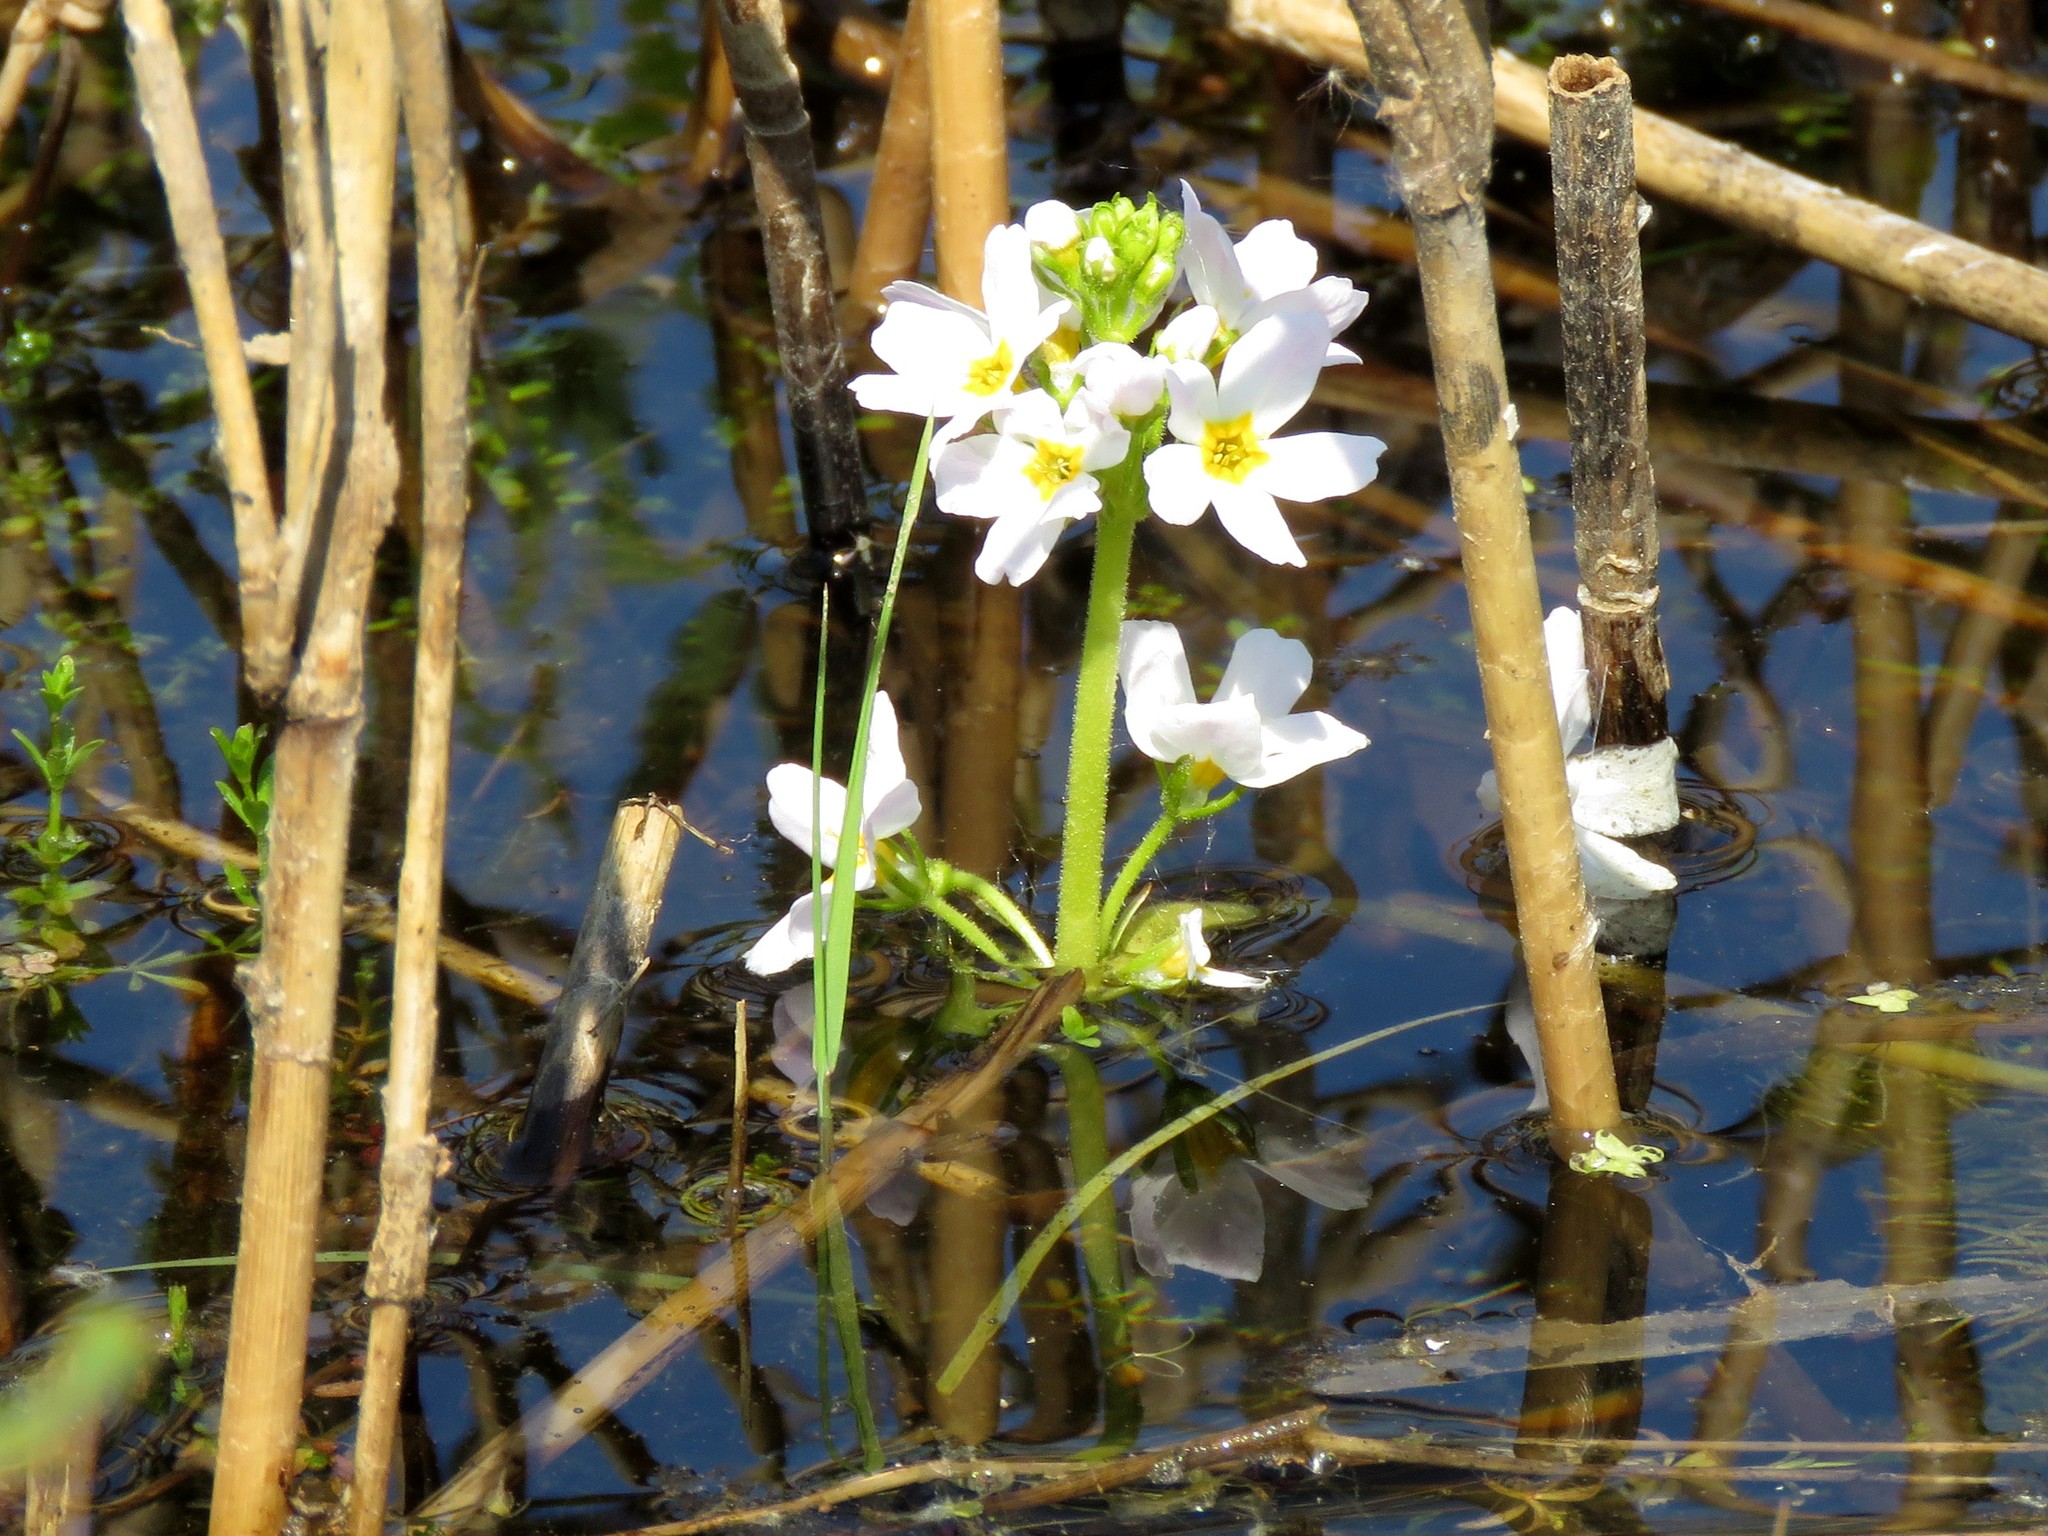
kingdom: Plantae
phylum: Tracheophyta
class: Magnoliopsida
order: Ericales
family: Primulaceae
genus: Hottonia
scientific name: Hottonia palustris
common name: Water-violet
